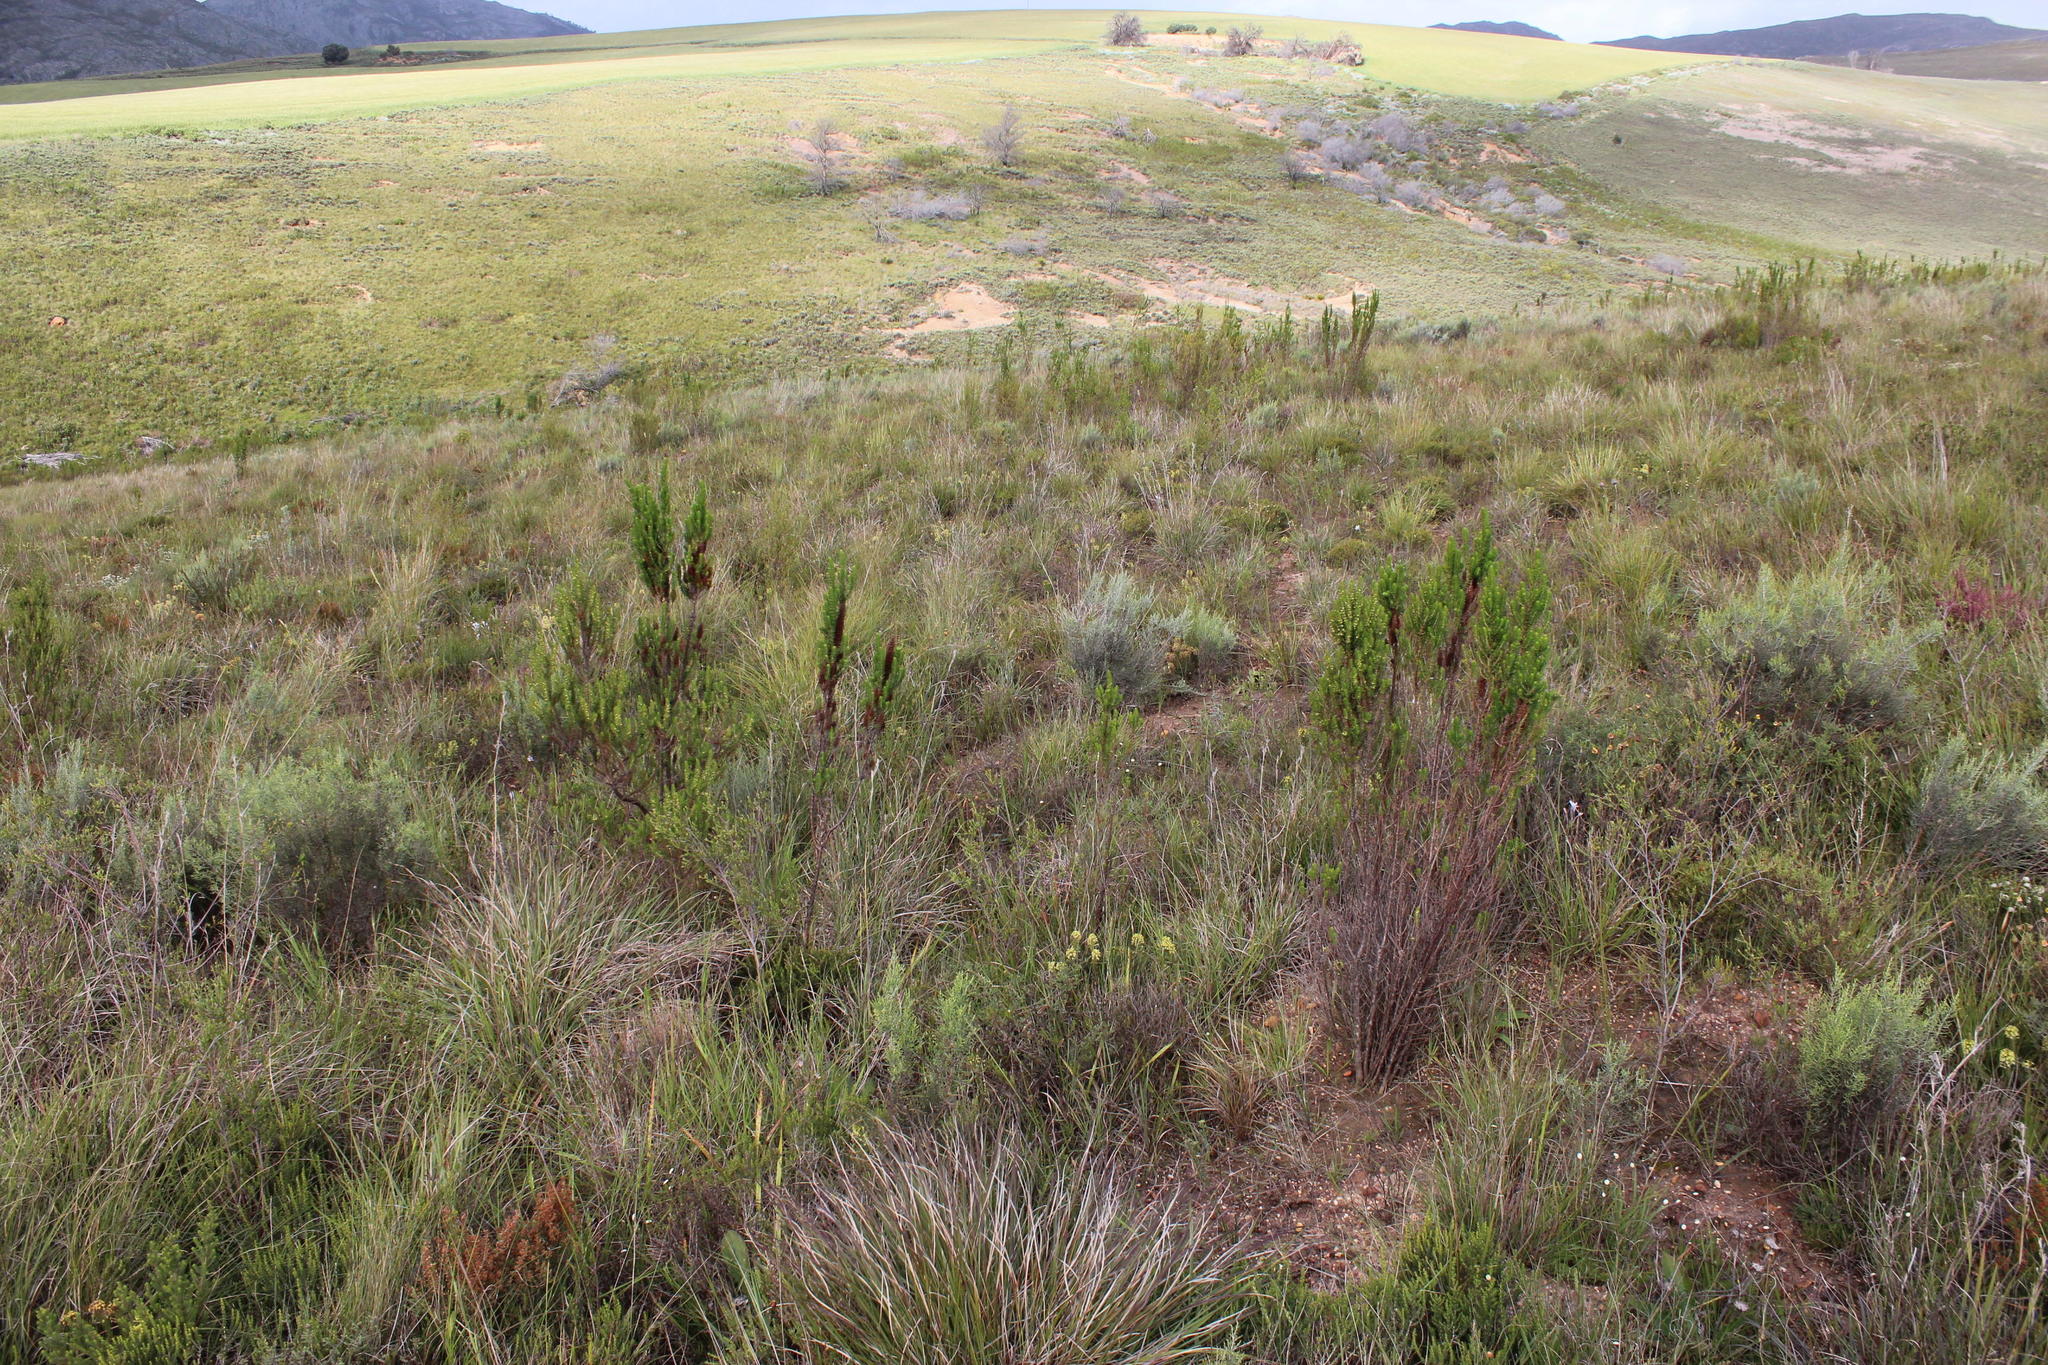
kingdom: Plantae
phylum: Tracheophyta
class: Magnoliopsida
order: Gentianales
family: Rubiaceae
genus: Anthospermum
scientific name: Anthospermum spathulatum
